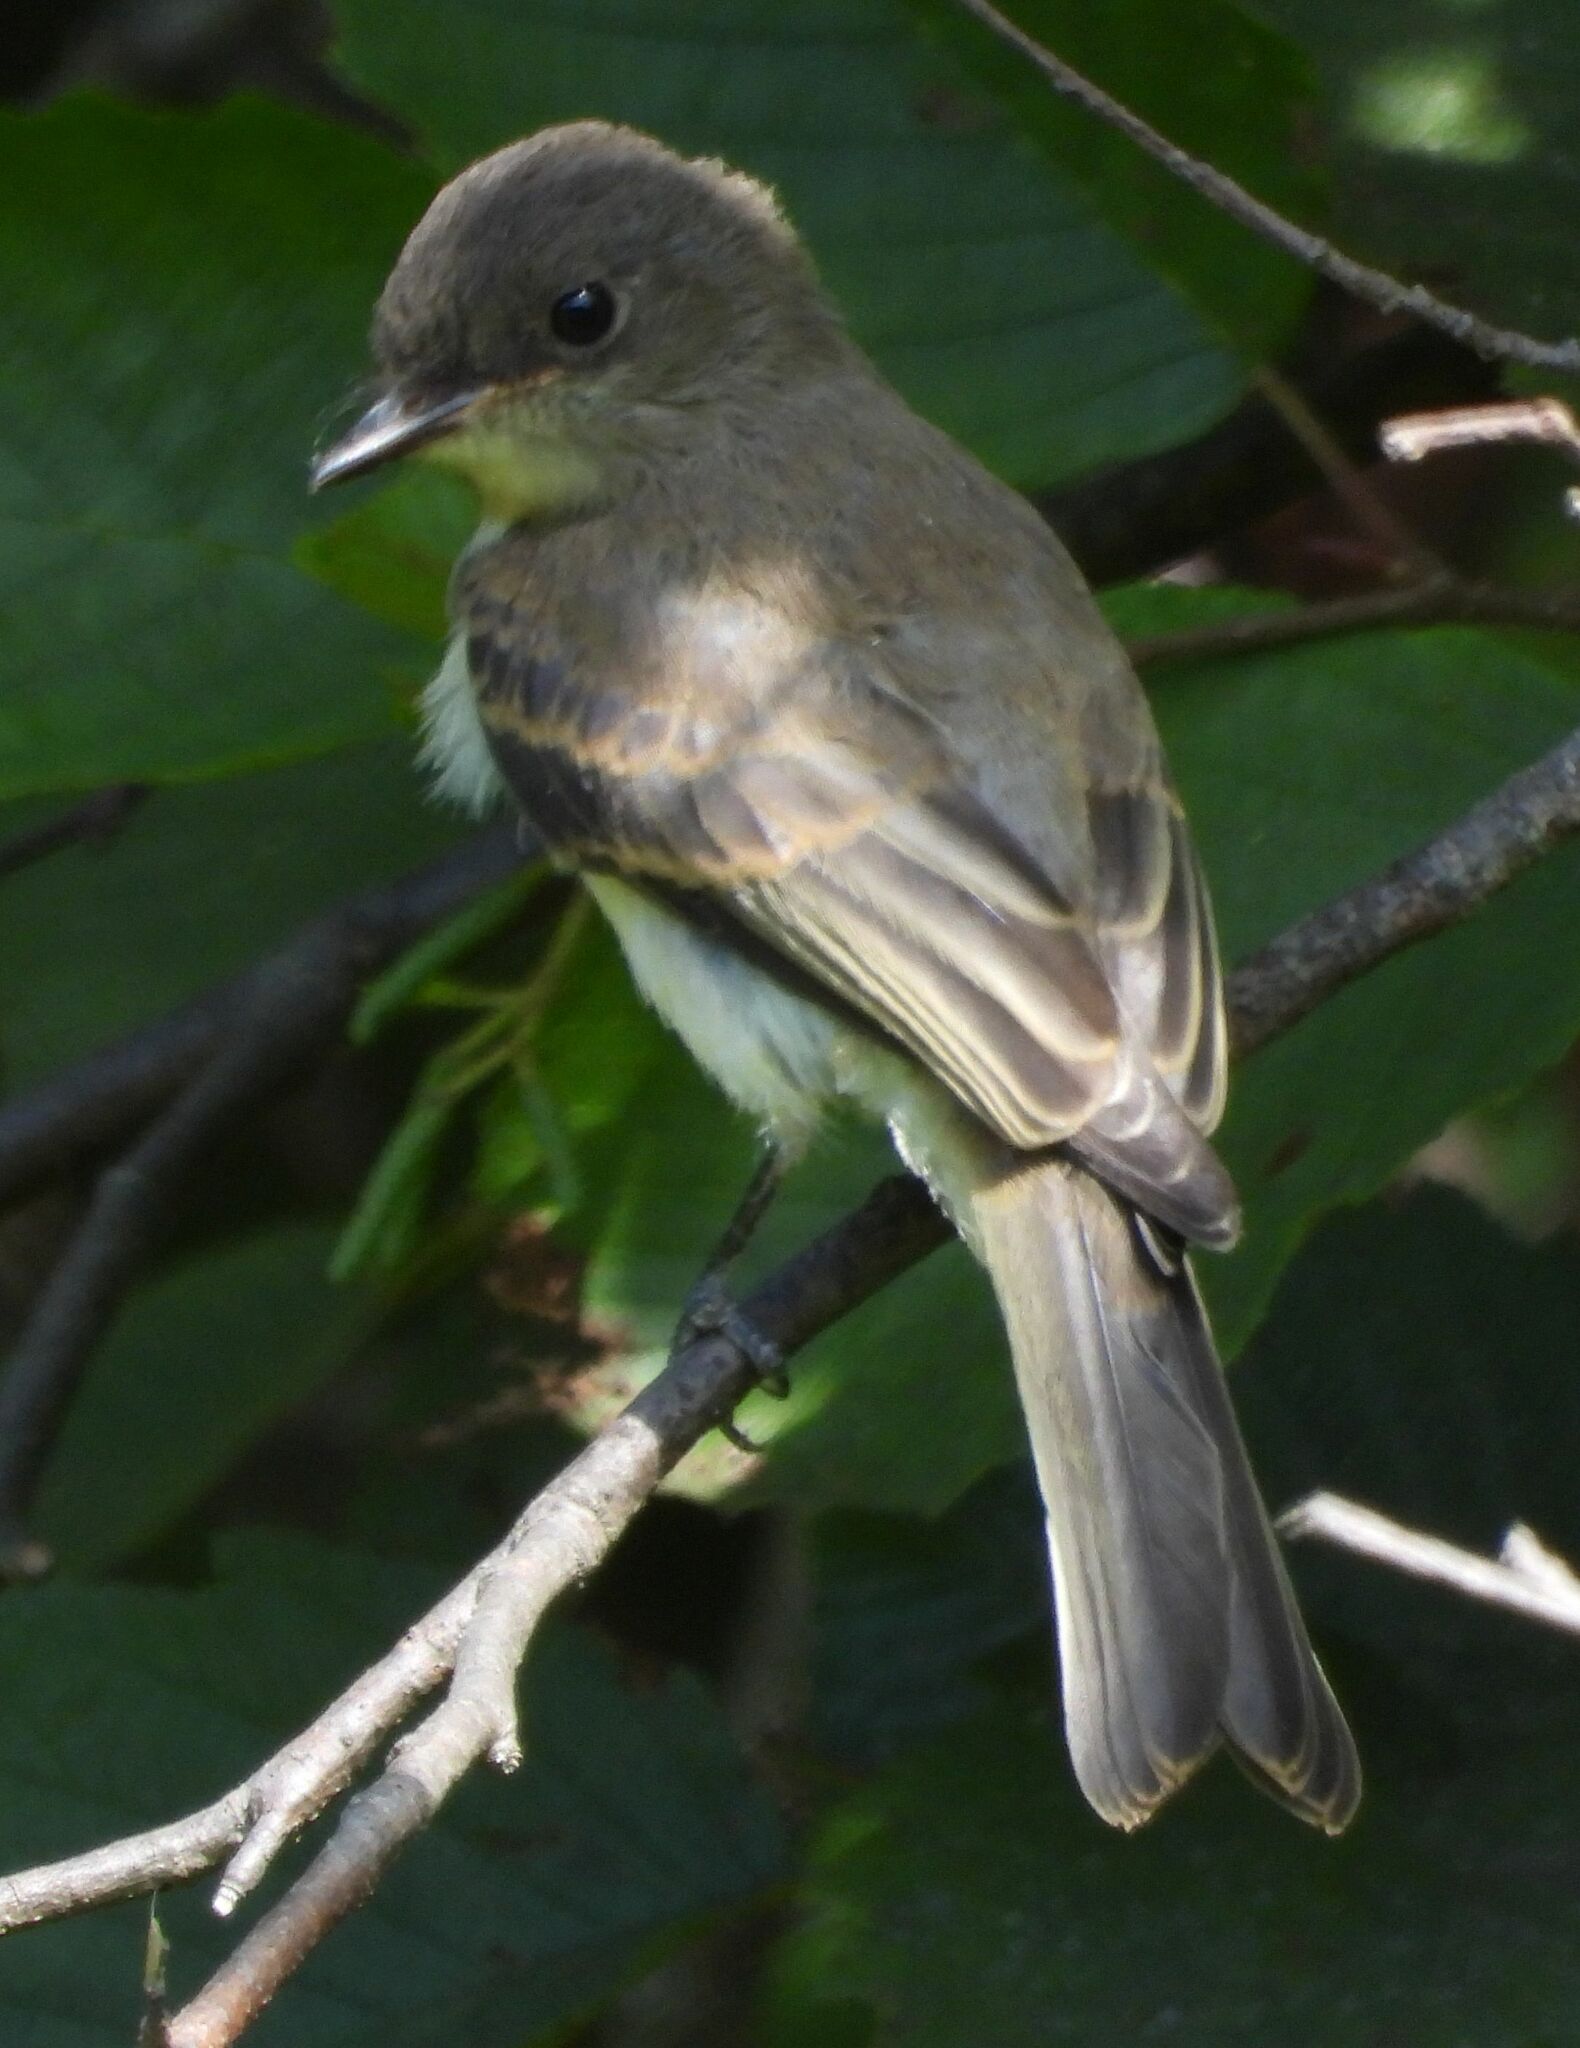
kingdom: Animalia
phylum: Chordata
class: Aves
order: Passeriformes
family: Tyrannidae
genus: Sayornis
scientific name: Sayornis phoebe
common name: Eastern phoebe
